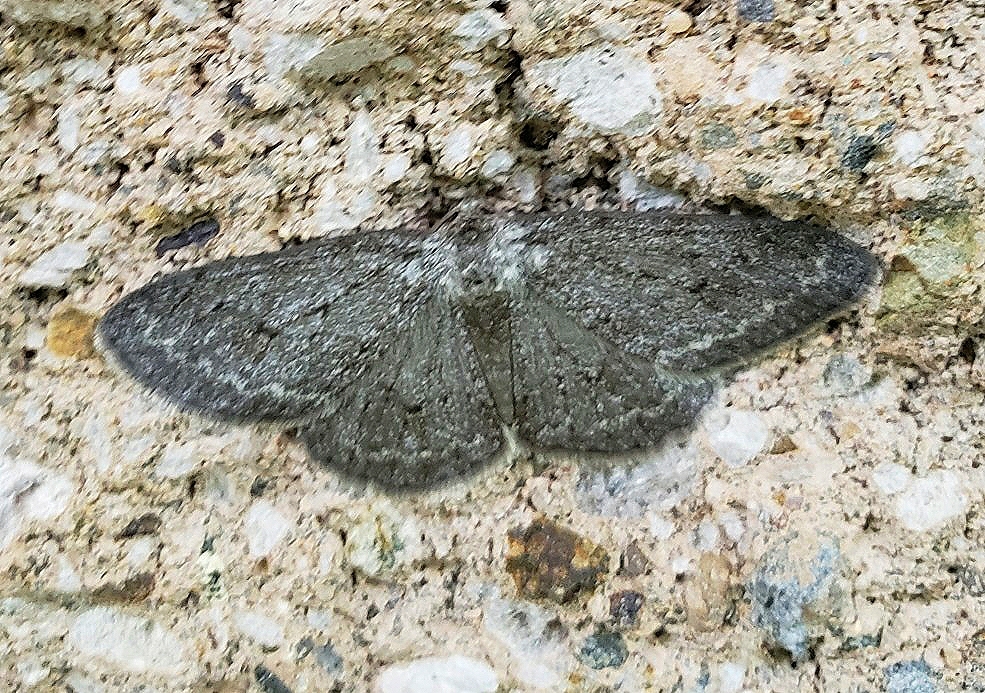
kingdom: Animalia
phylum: Arthropoda
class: Insecta
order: Lepidoptera
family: Geometridae
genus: Ectropis
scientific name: Ectropis crepuscularia
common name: Engrailed
